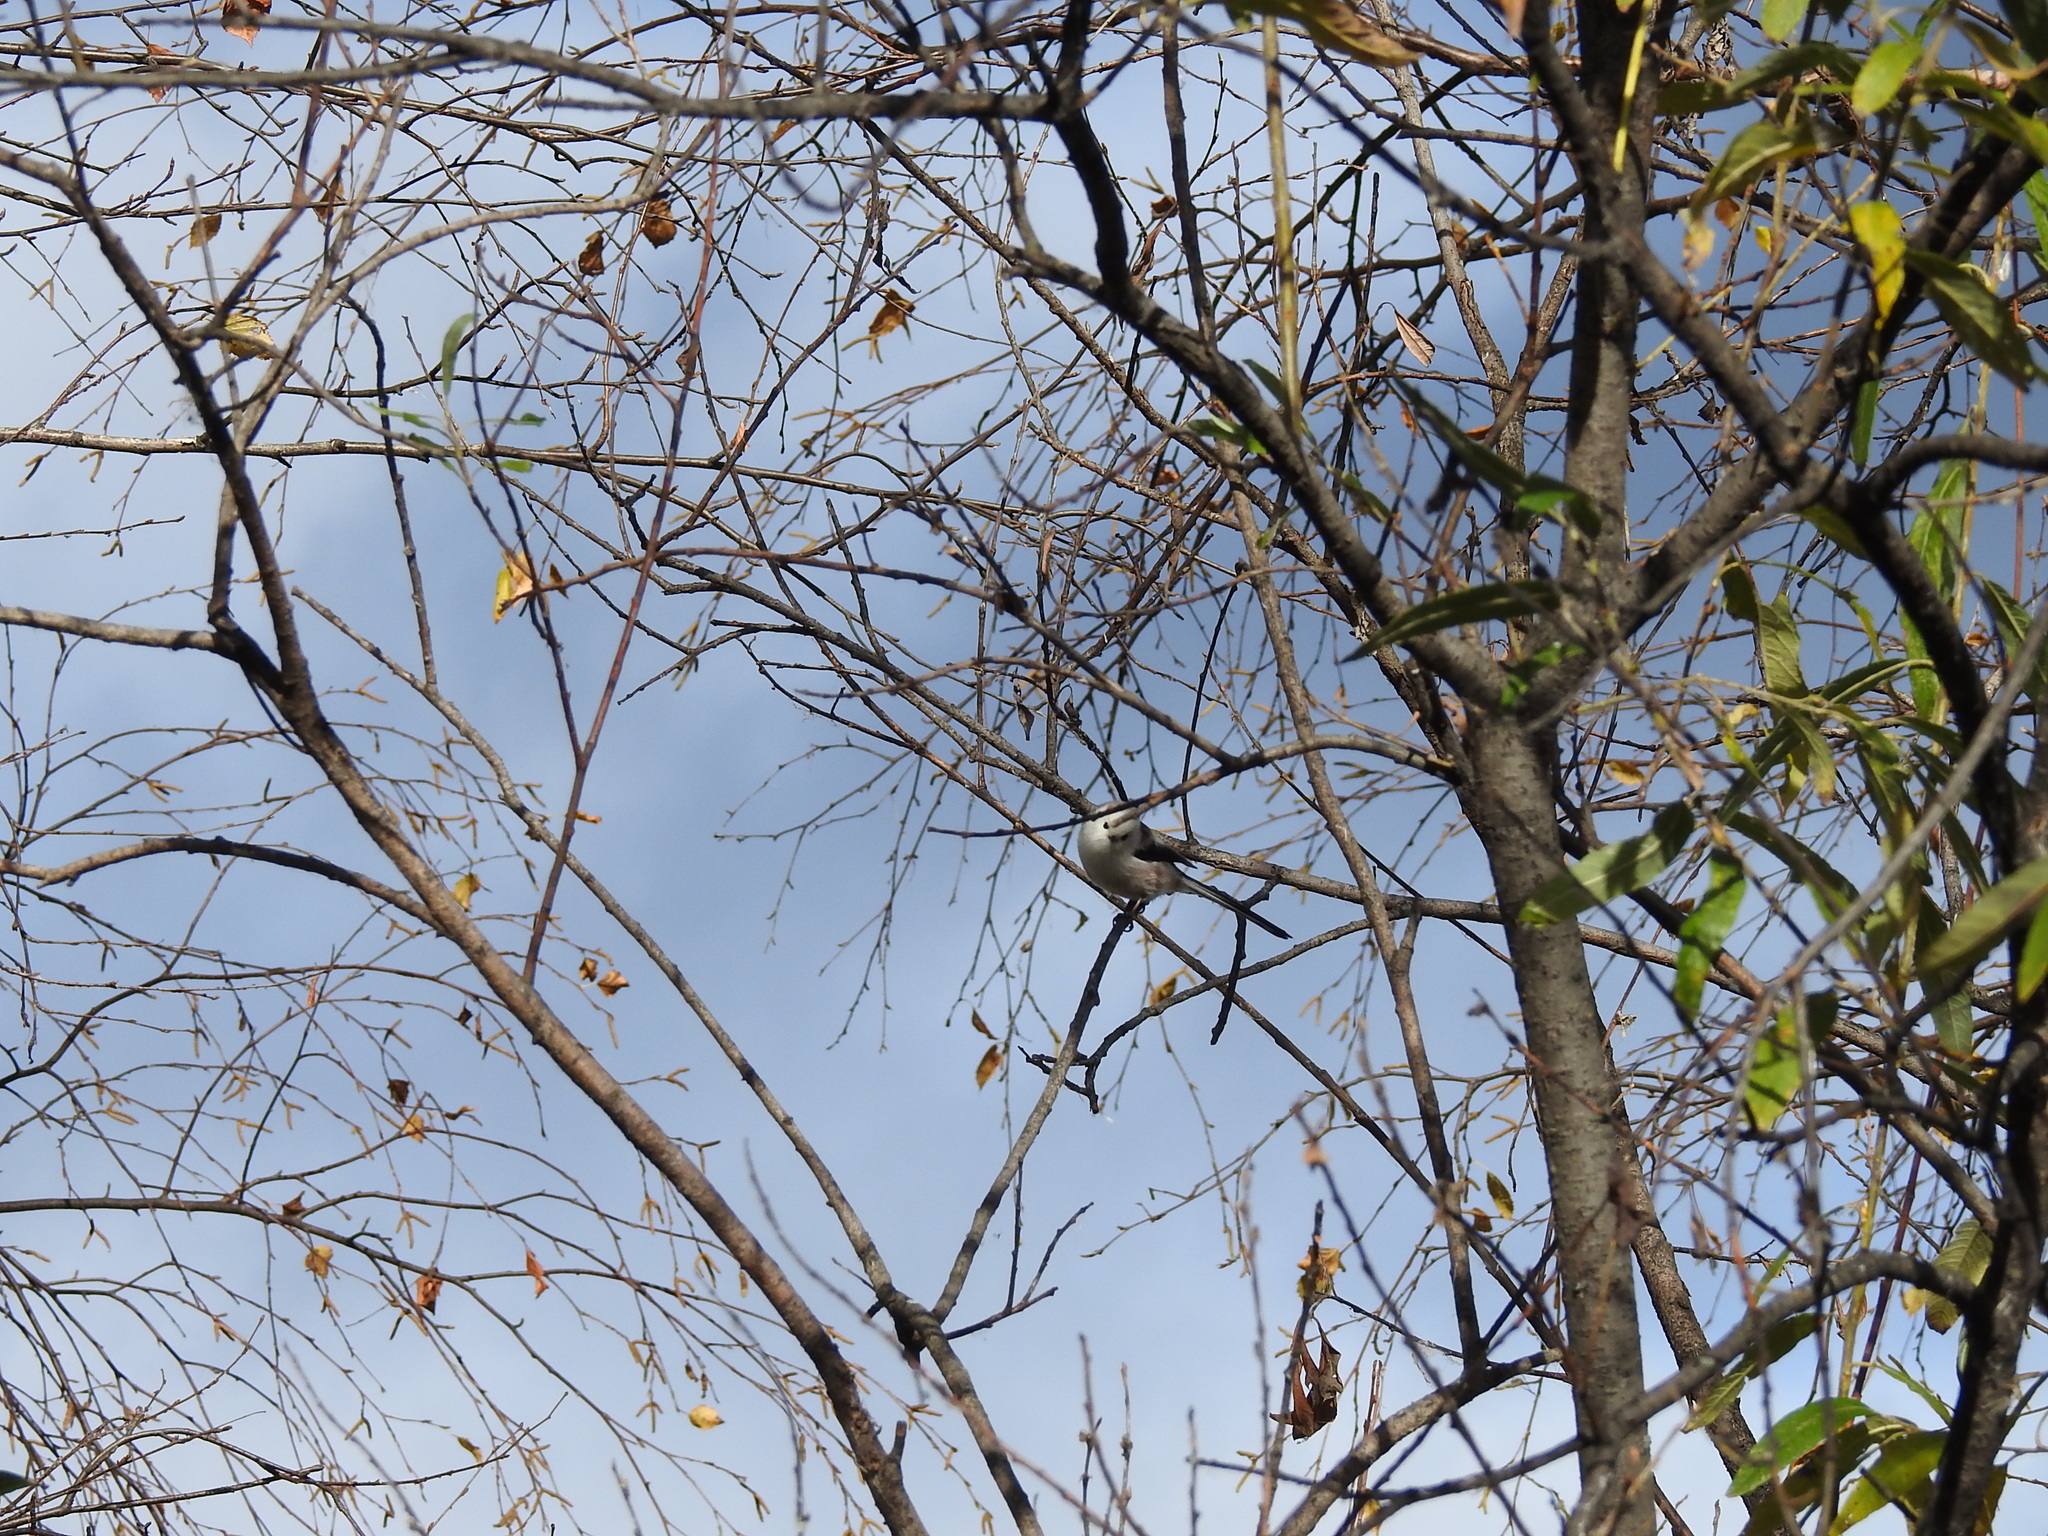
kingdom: Animalia
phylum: Chordata
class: Aves
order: Passeriformes
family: Aegithalidae
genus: Aegithalos
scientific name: Aegithalos caudatus
